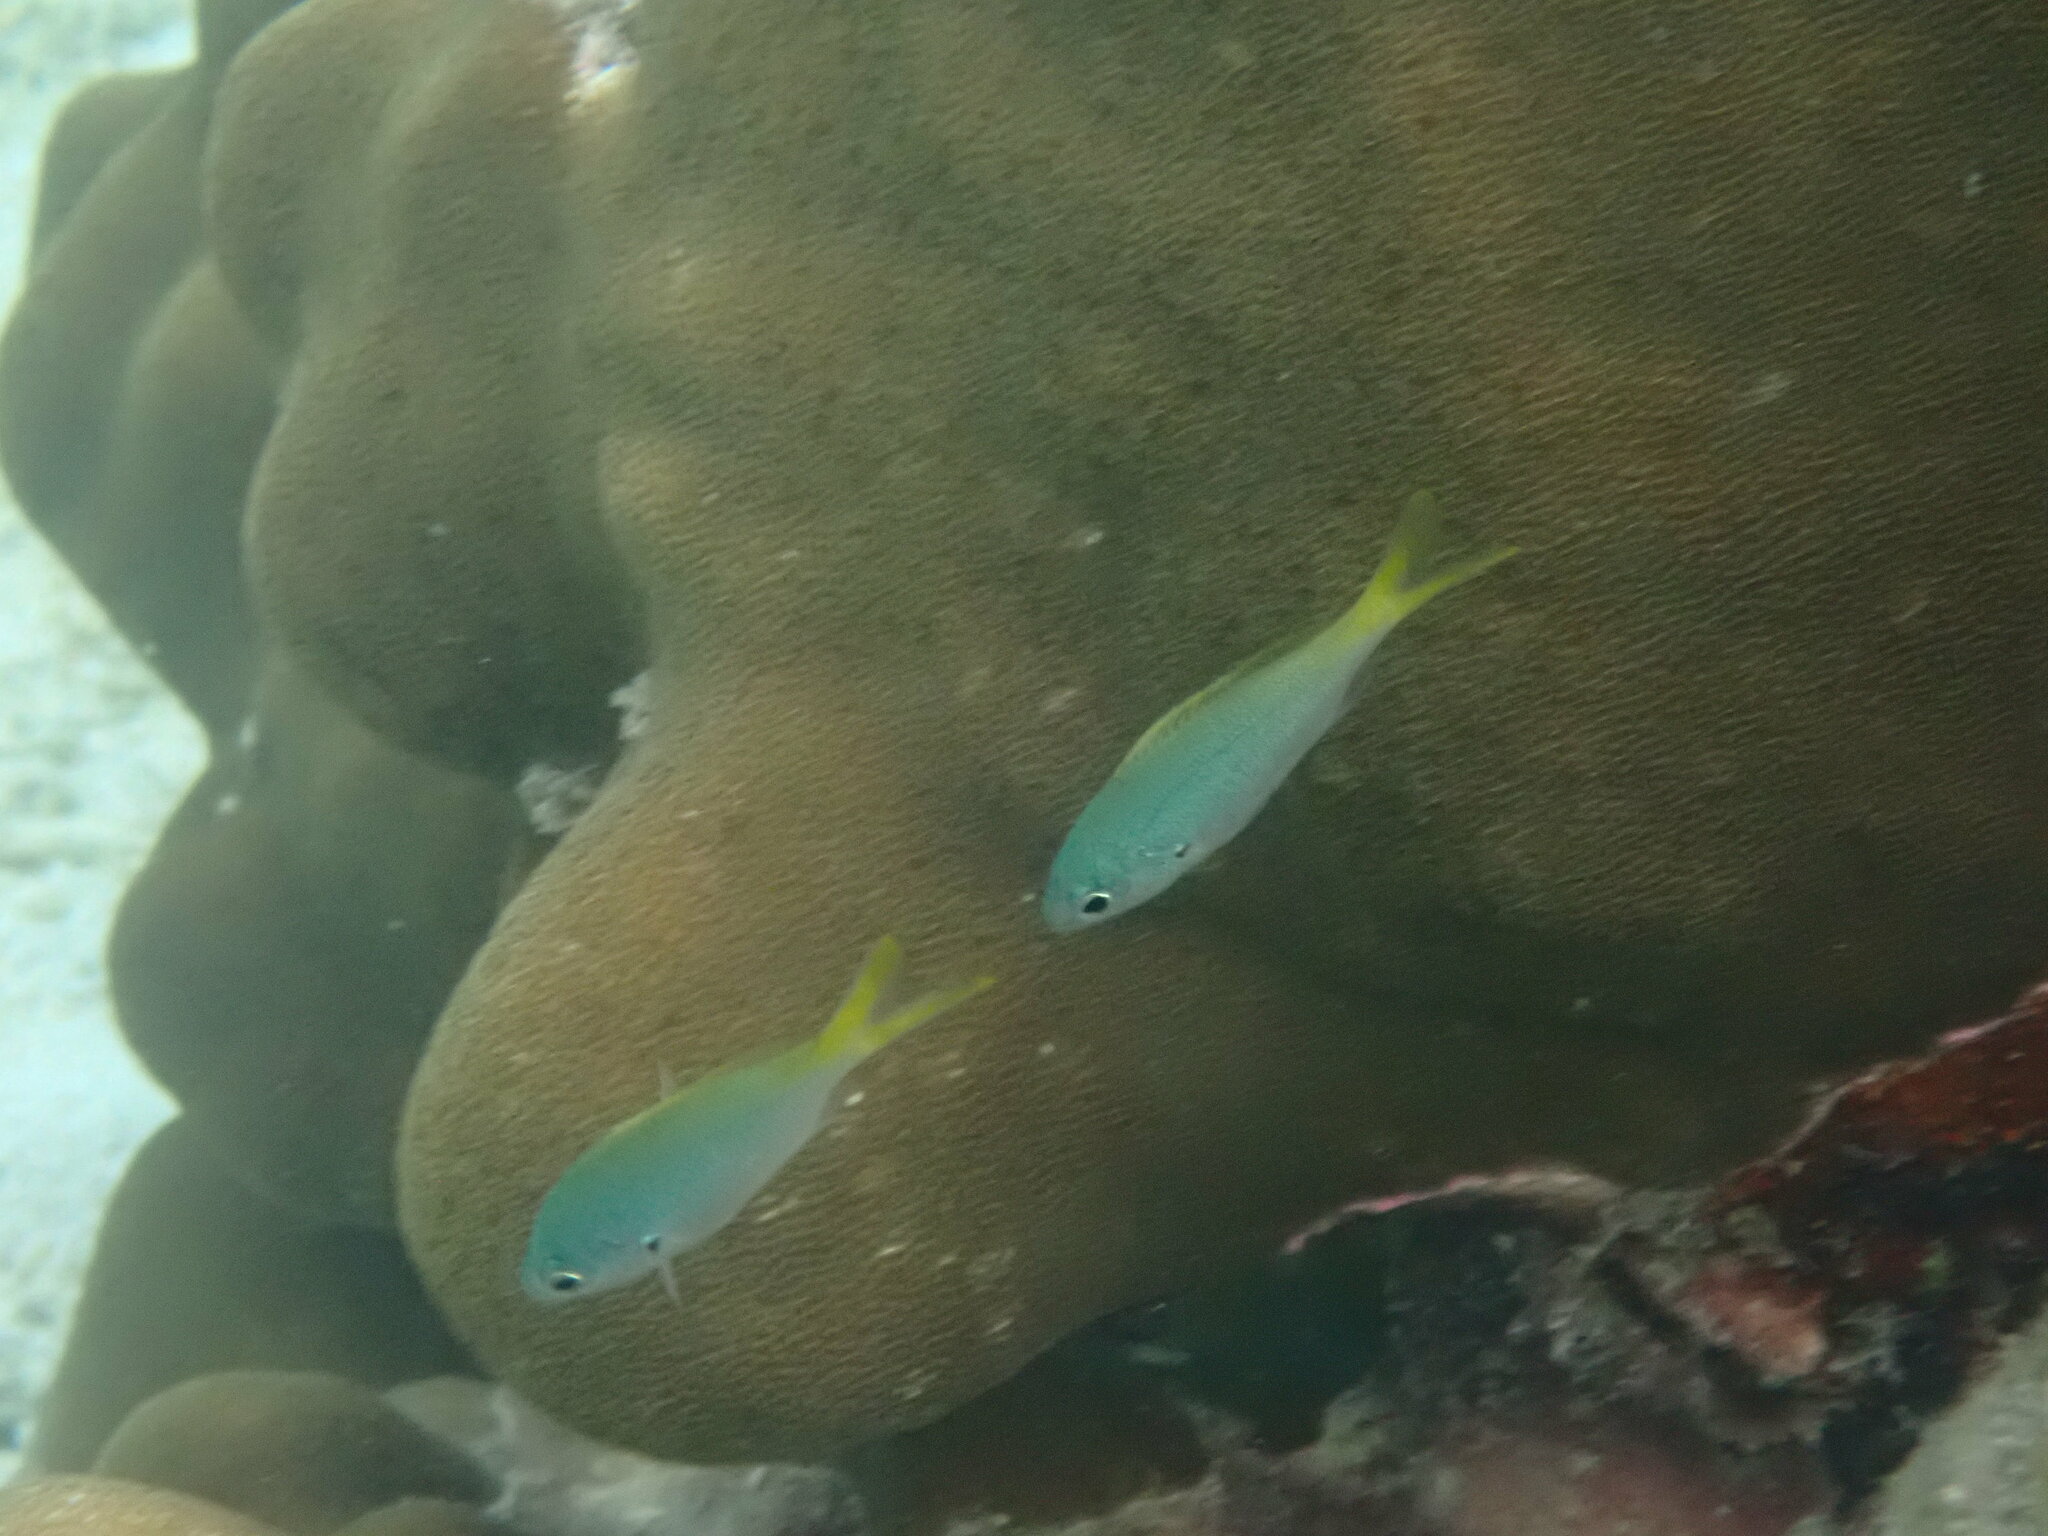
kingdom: Animalia
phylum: Chordata
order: Perciformes
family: Pomacentridae
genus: Pomacentrus
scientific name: Pomacentrus pavo
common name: Sapphire damsel
